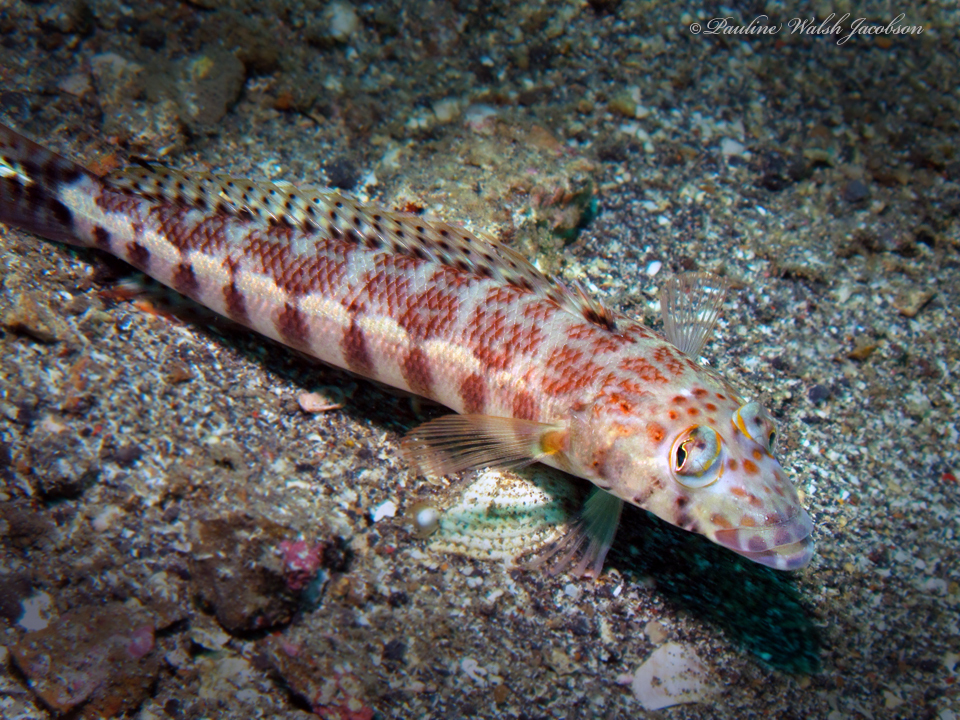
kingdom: Animalia
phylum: Chordata
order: Perciformes
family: Pinguipedidae
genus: Parapercis
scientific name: Parapercis xanthozona
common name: Yellowbar sandperch
